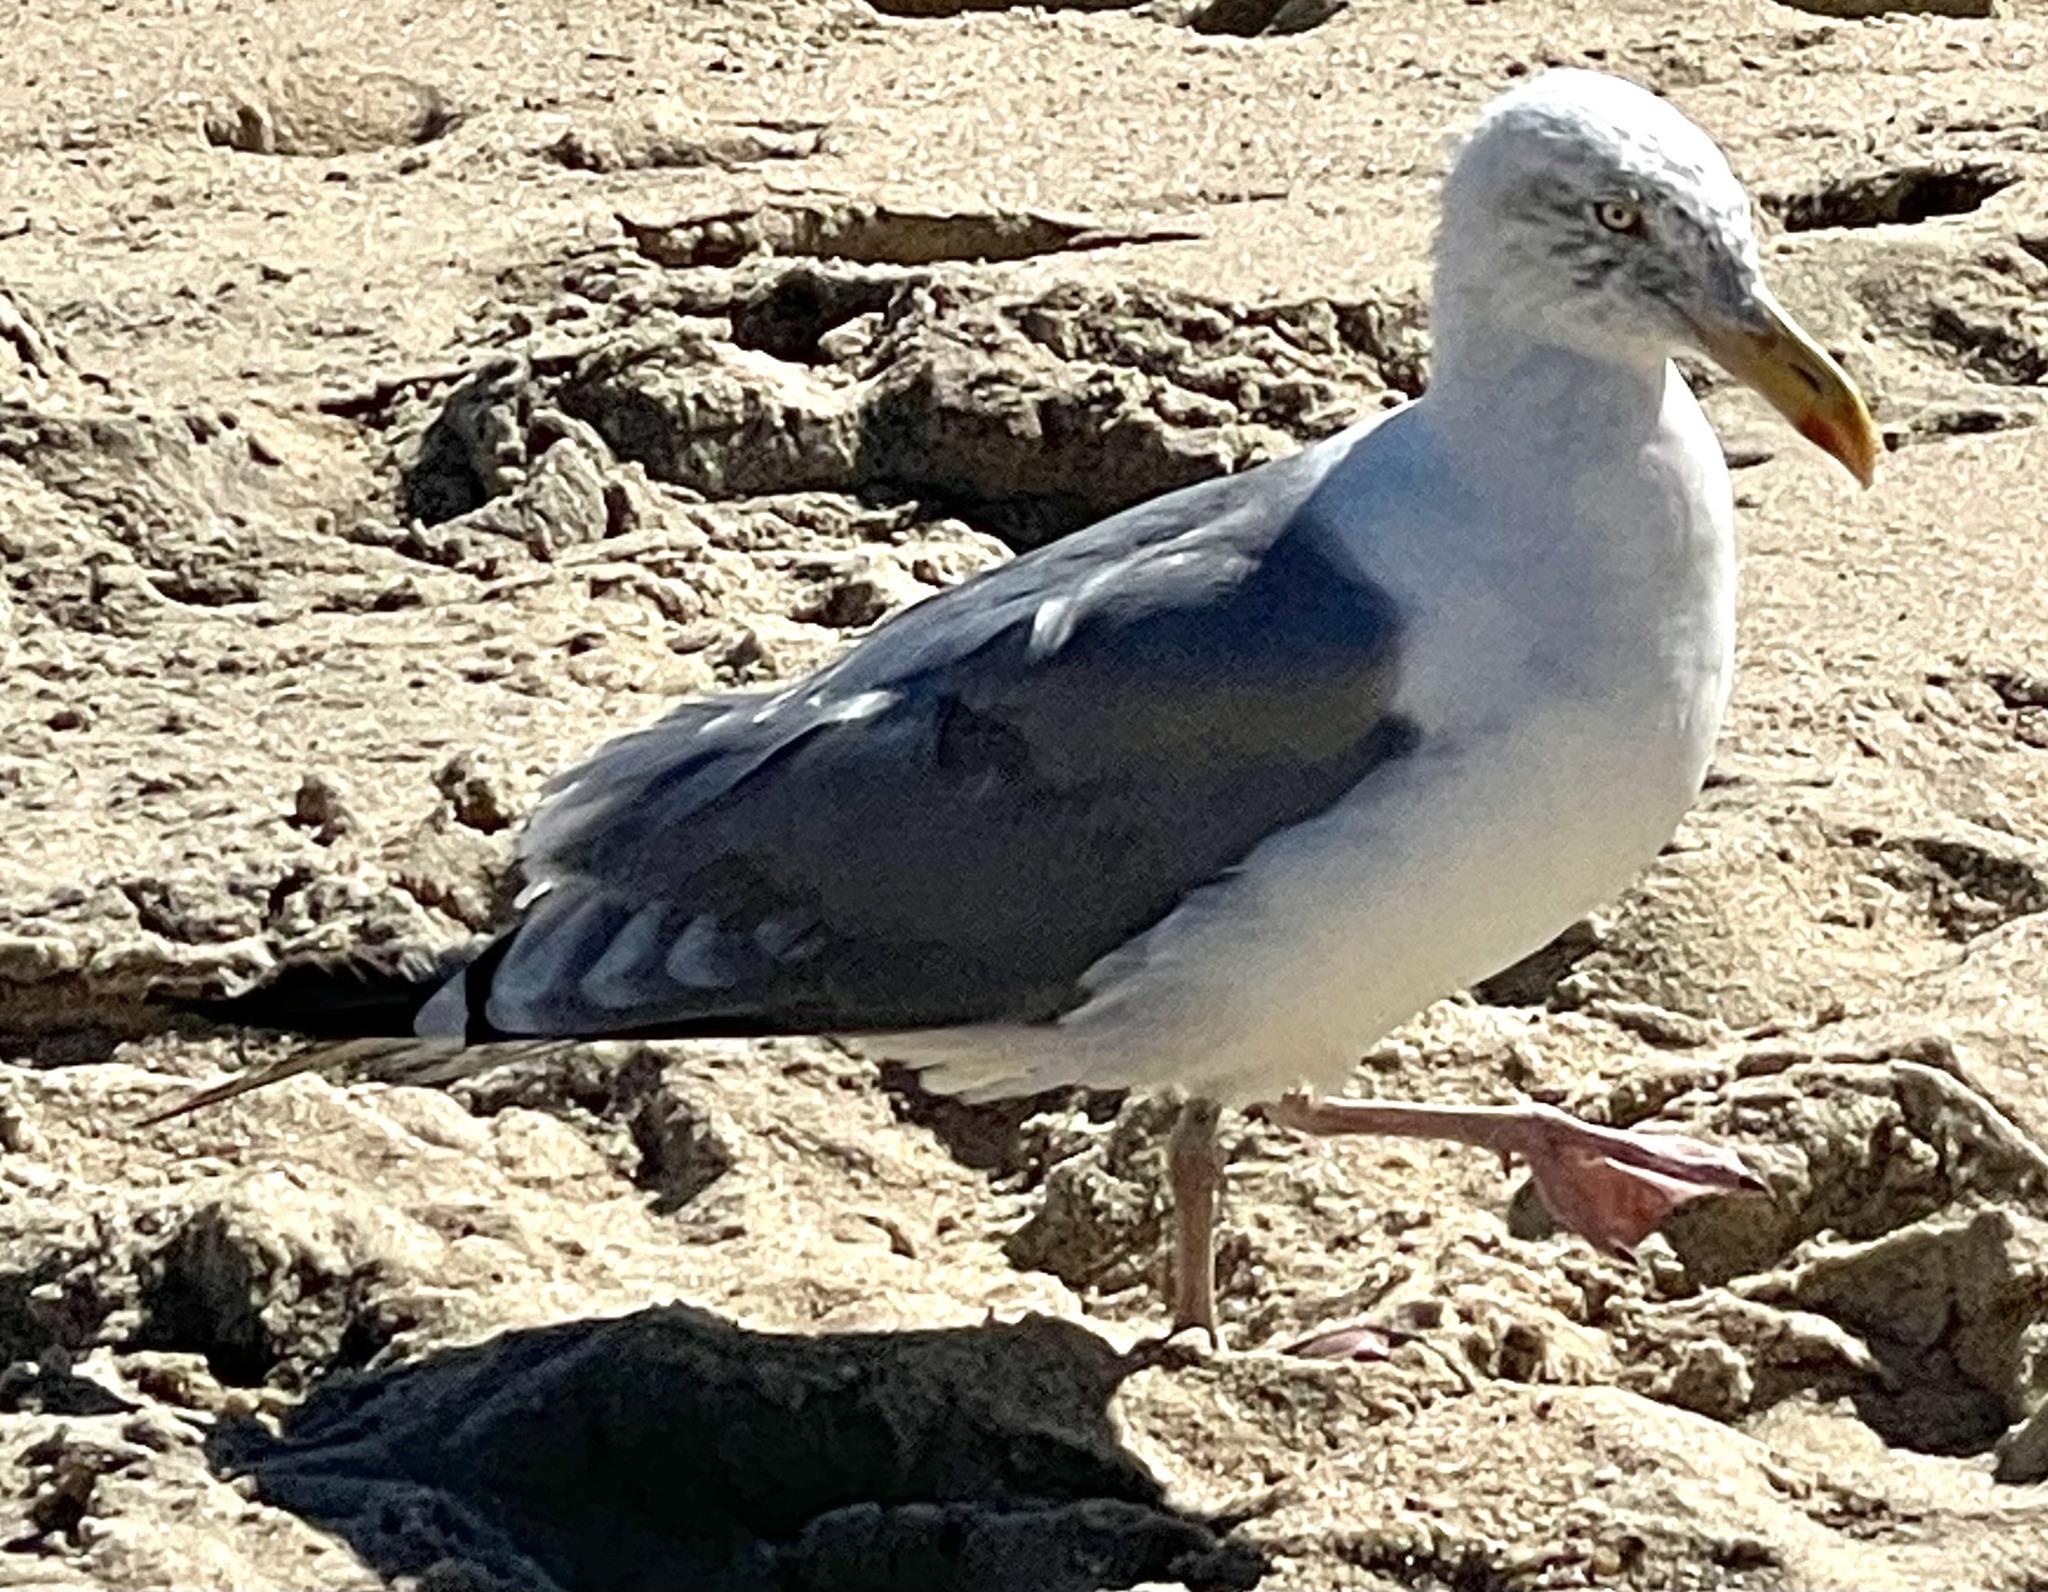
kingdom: Animalia
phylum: Chordata
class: Aves
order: Charadriiformes
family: Laridae
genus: Larus
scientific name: Larus argentatus
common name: Herring gull
